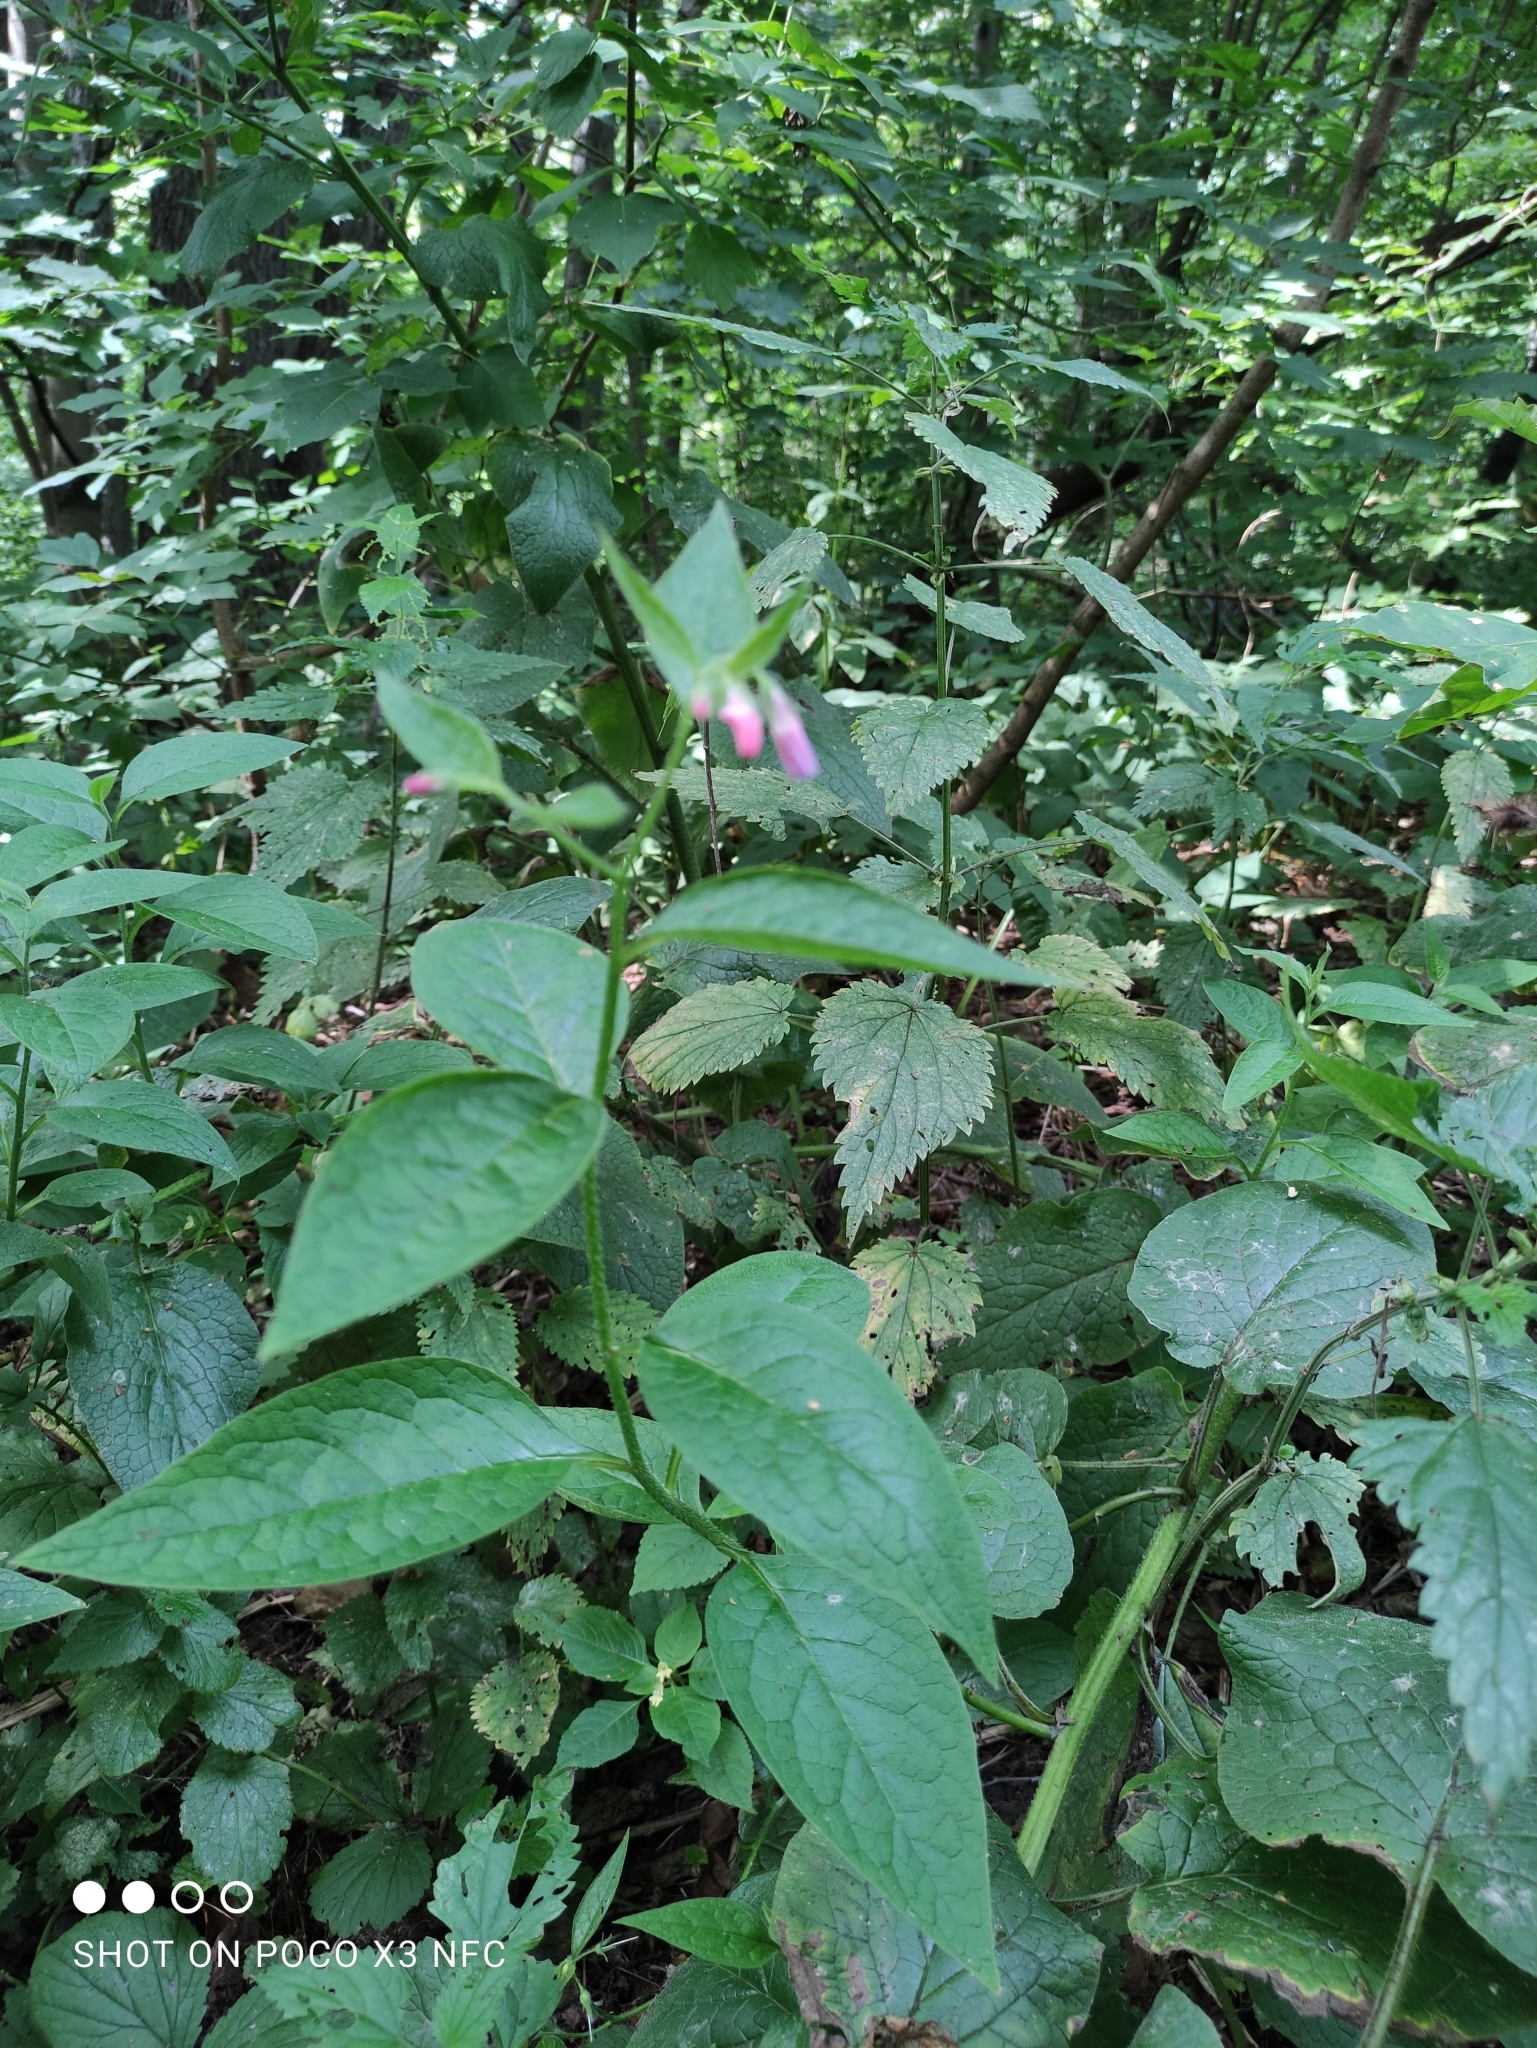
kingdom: Plantae
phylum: Tracheophyta
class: Magnoliopsida
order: Boraginales
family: Boraginaceae
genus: Symphytum
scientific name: Symphytum uplandicum
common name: Russian comfrey
